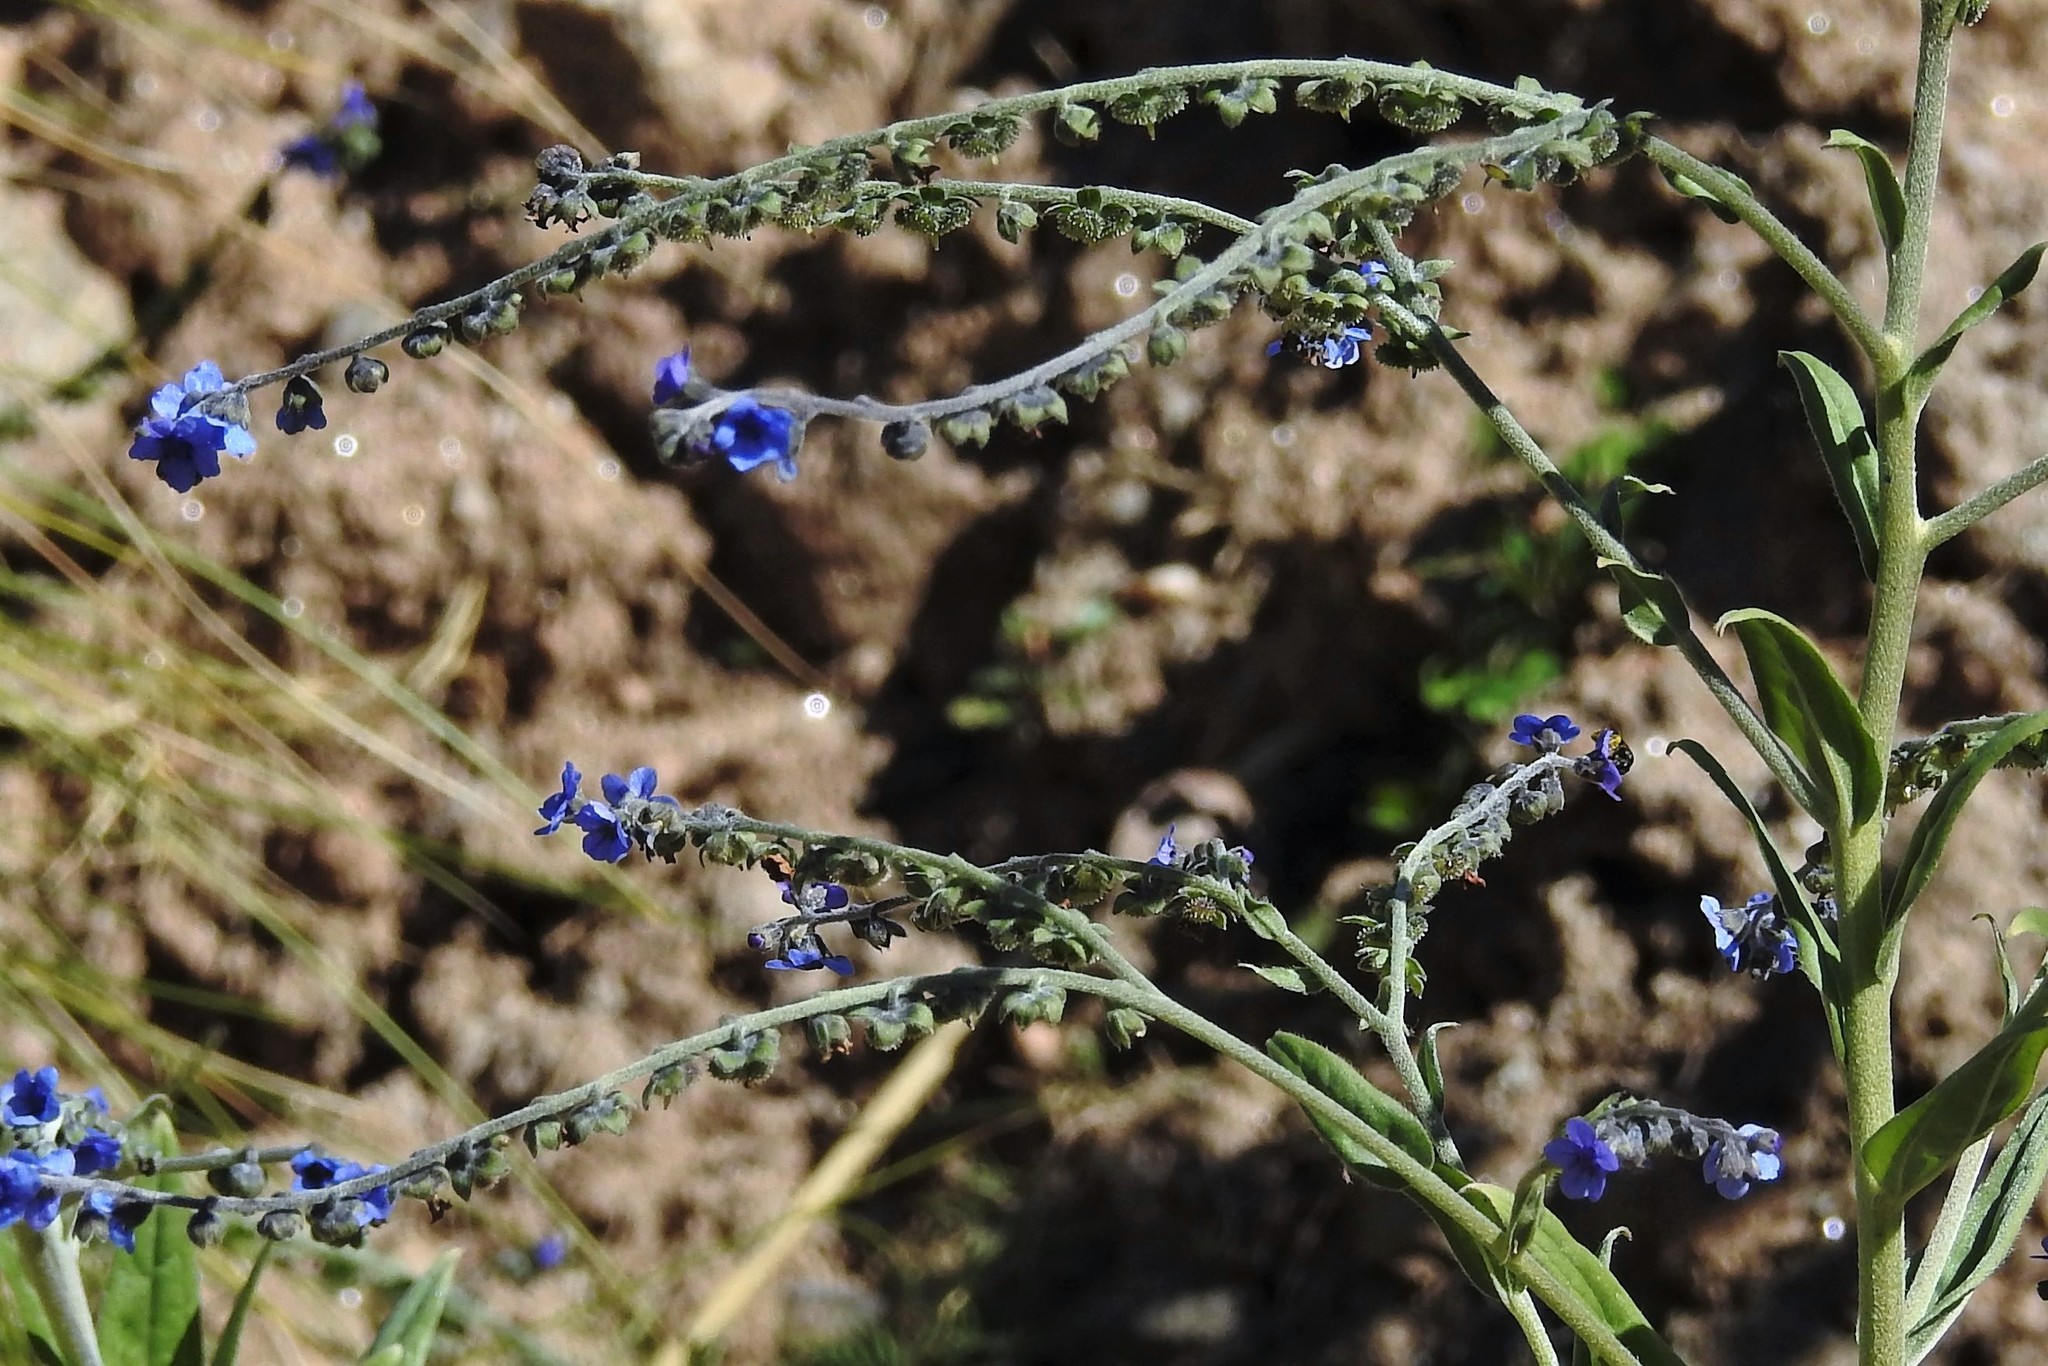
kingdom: Plantae
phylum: Tracheophyta
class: Magnoliopsida
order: Boraginales
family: Boraginaceae
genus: Cynoglossum
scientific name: Cynoglossum amabile
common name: Chinese hound's tongue
